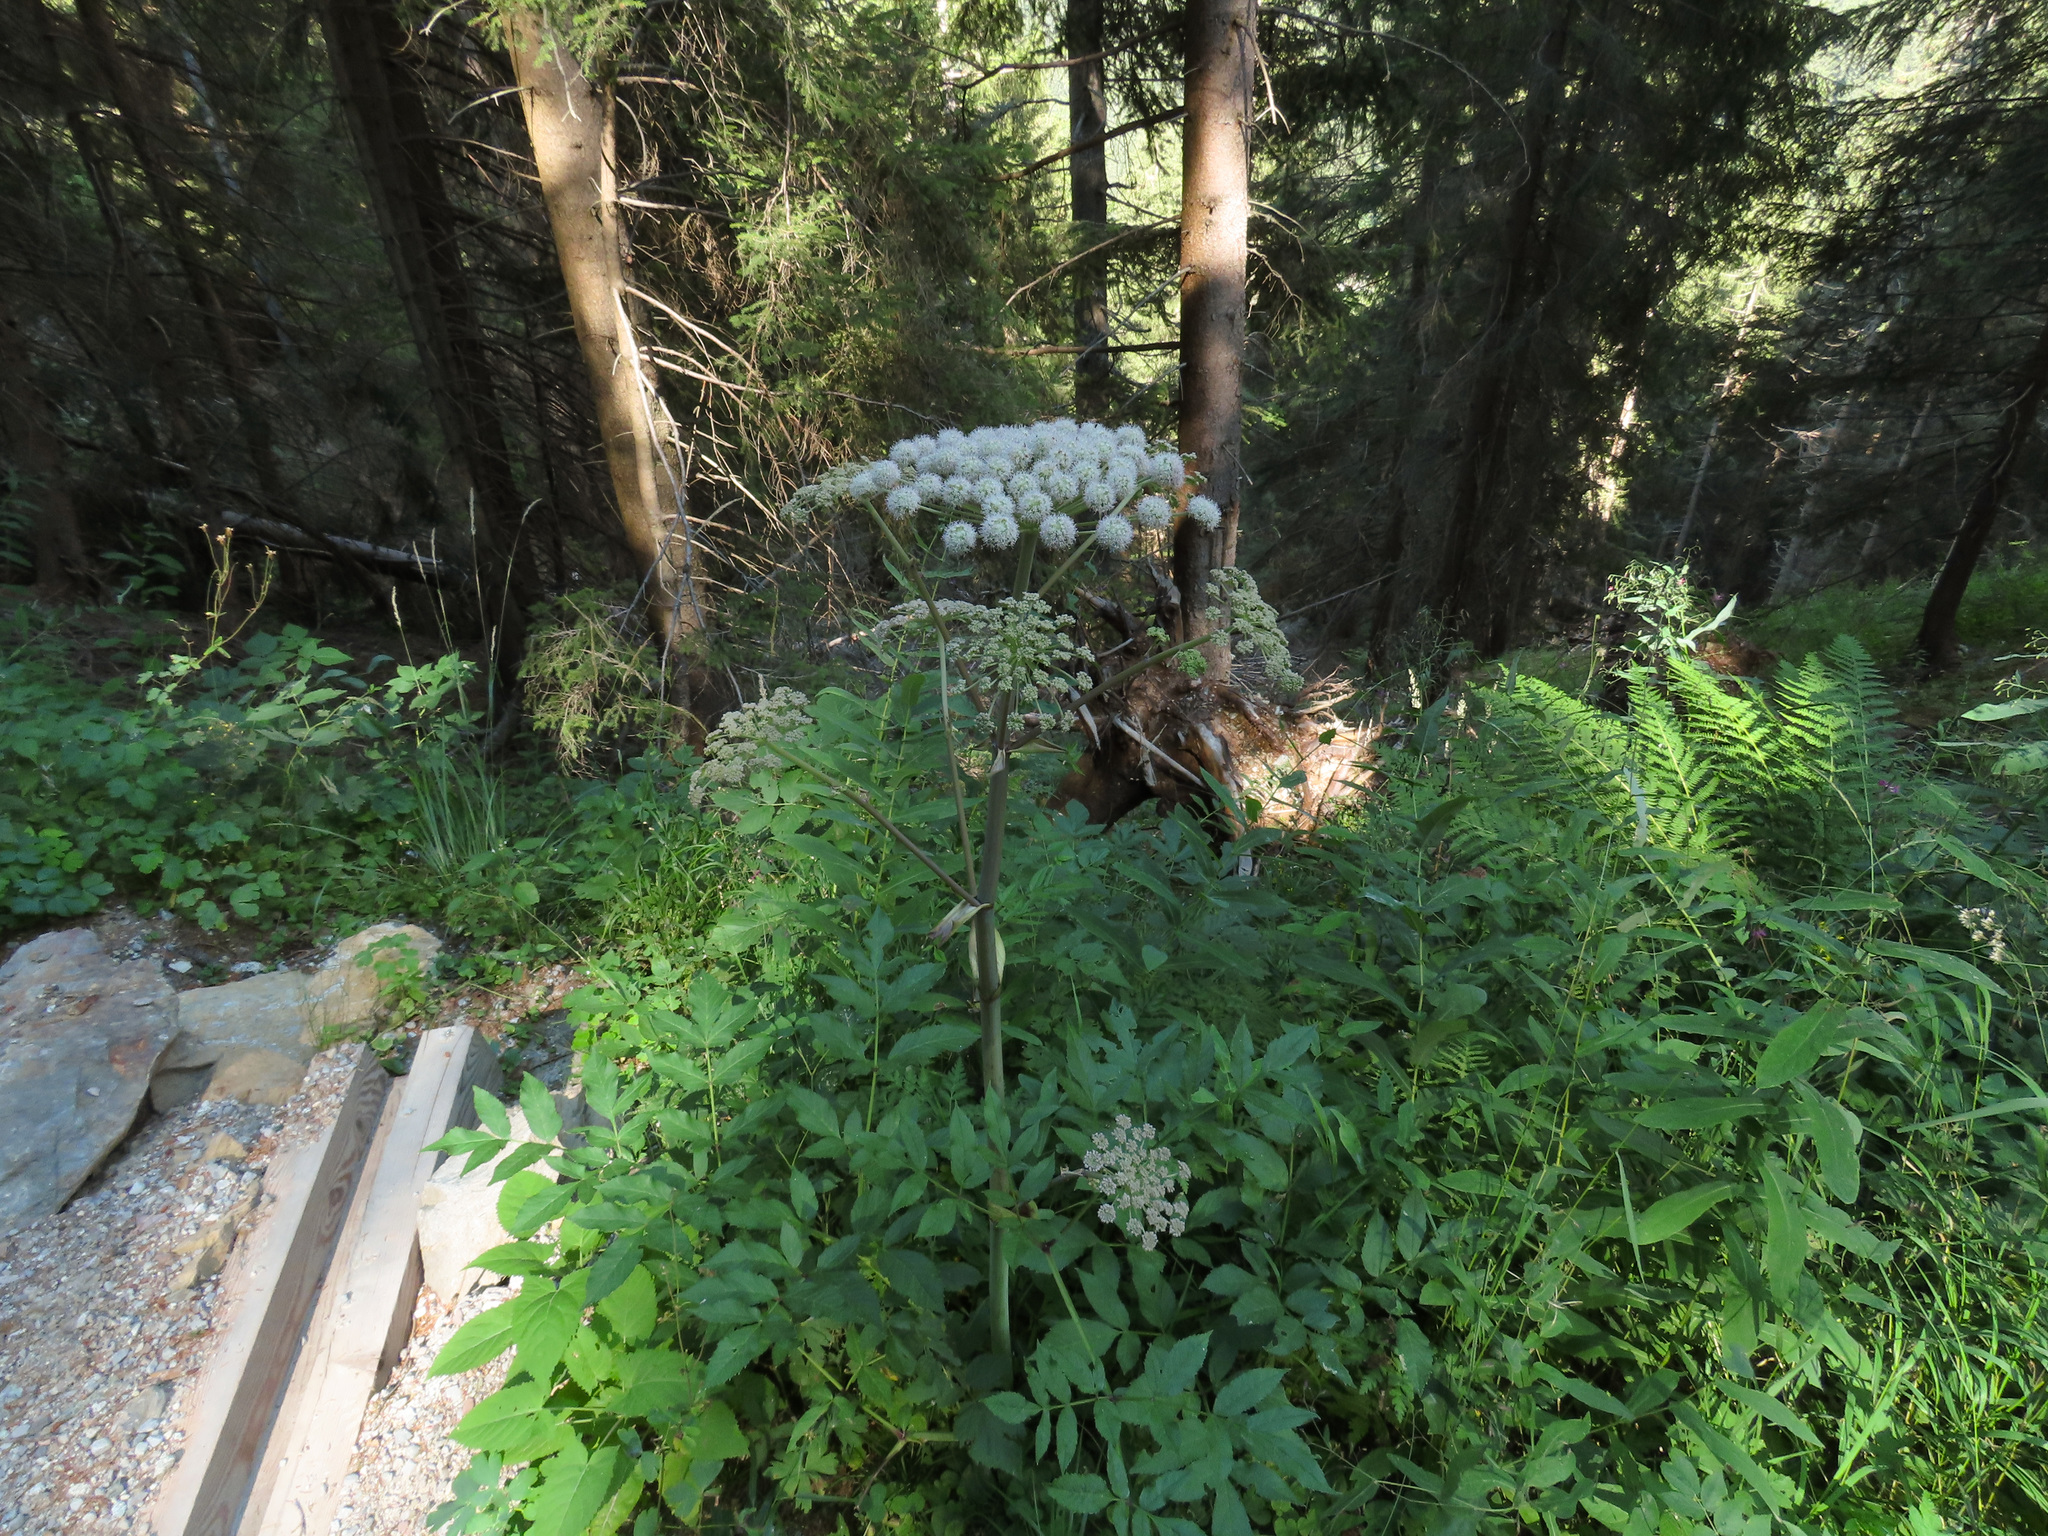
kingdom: Plantae
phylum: Tracheophyta
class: Magnoliopsida
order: Apiales
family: Apiaceae
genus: Angelica
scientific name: Angelica sylvestris
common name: Wild angelica
